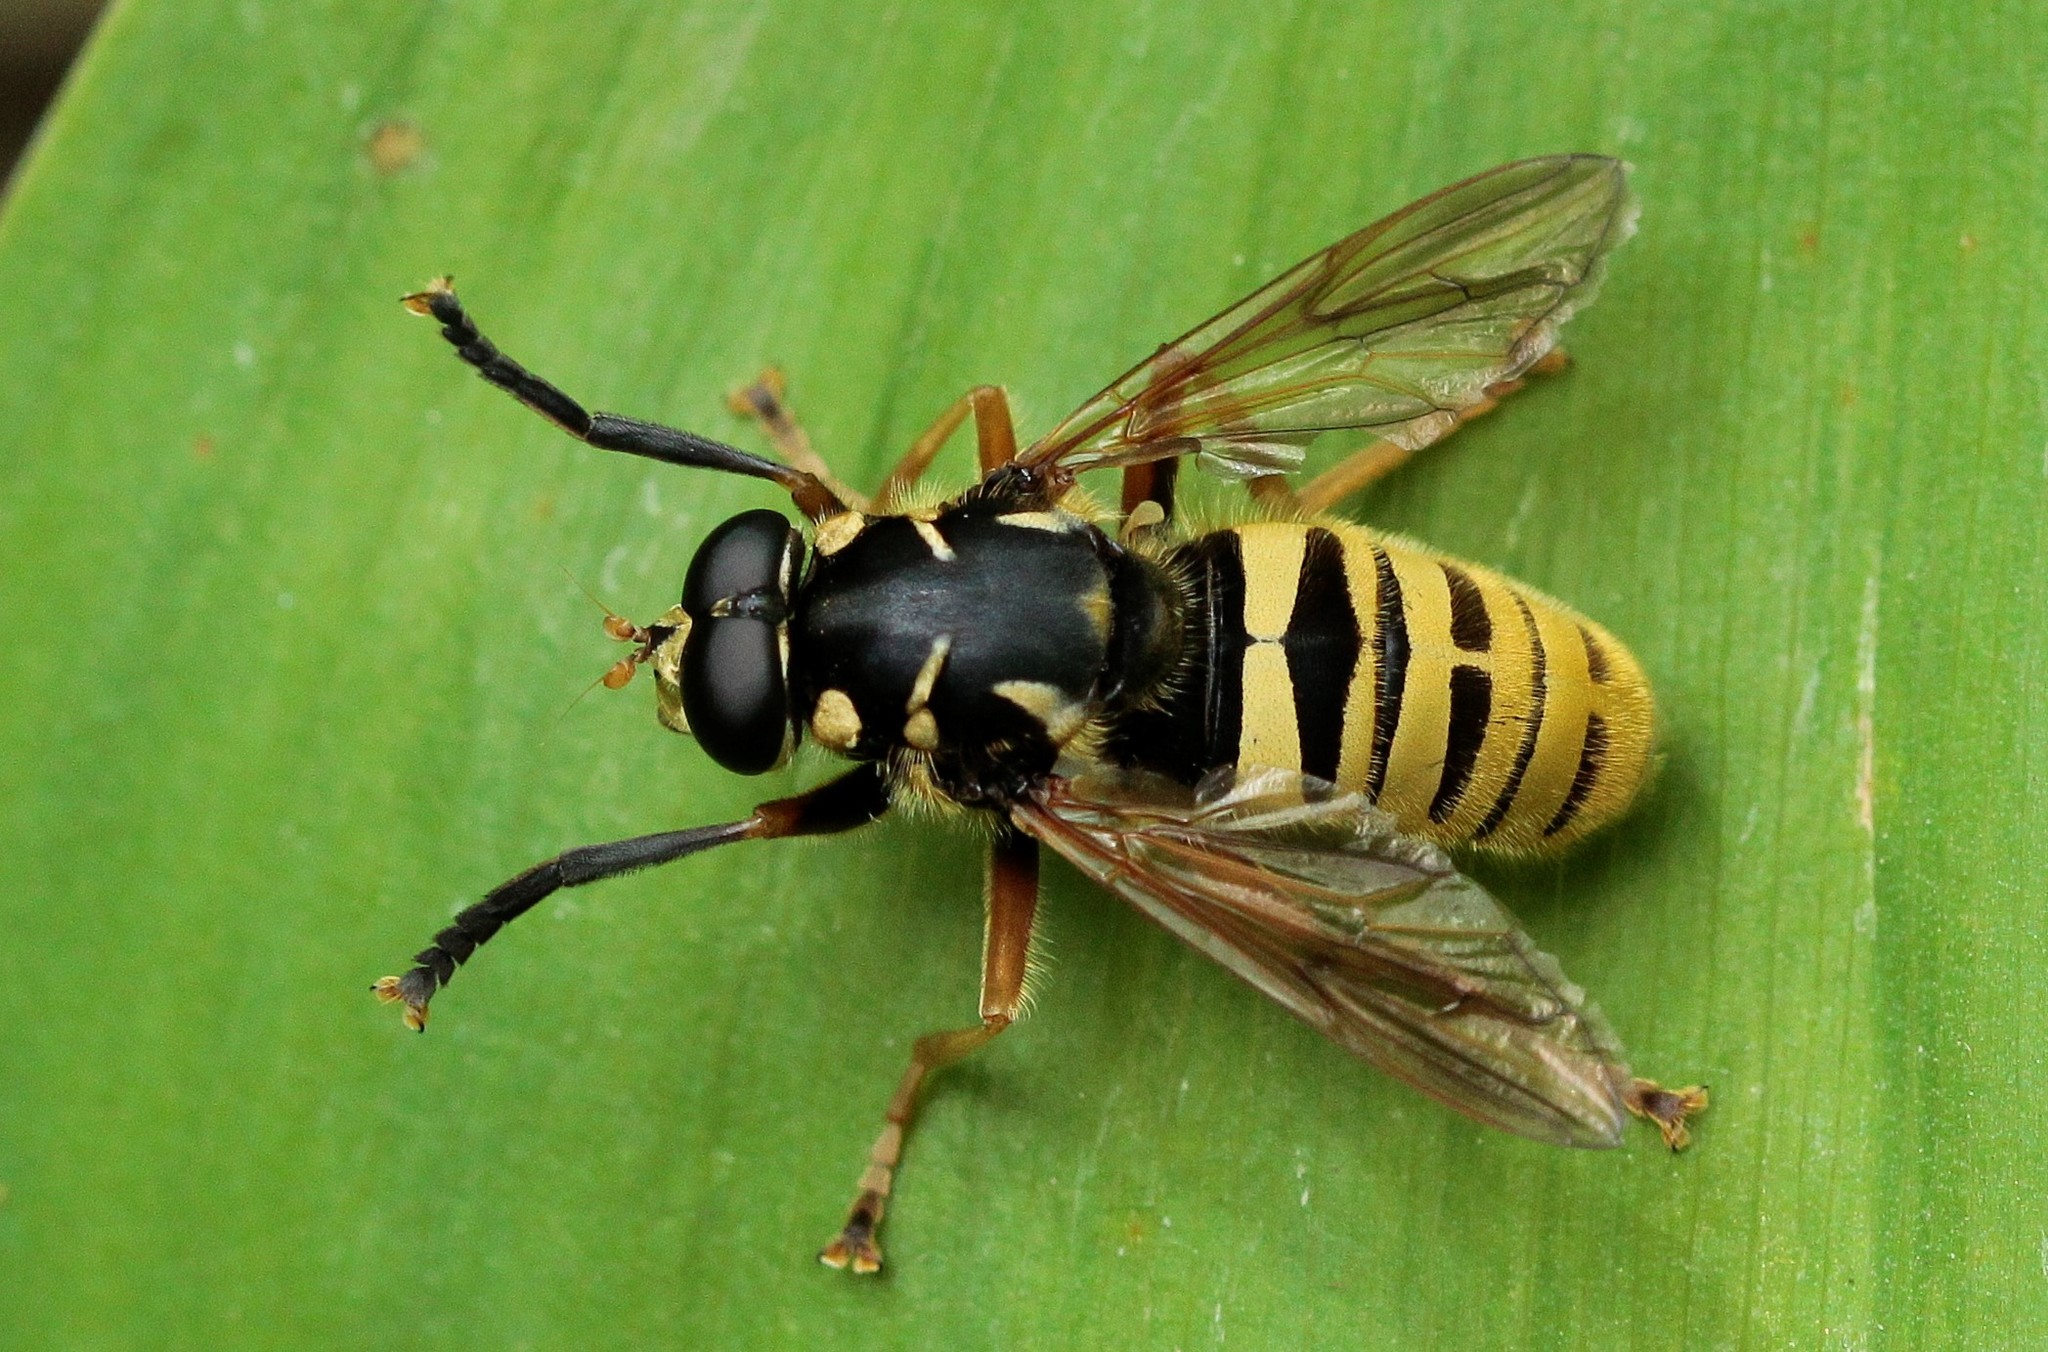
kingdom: Animalia
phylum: Arthropoda
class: Insecta
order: Diptera
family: Syrphidae
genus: Temnostoma
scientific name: Temnostoma vespiforme
